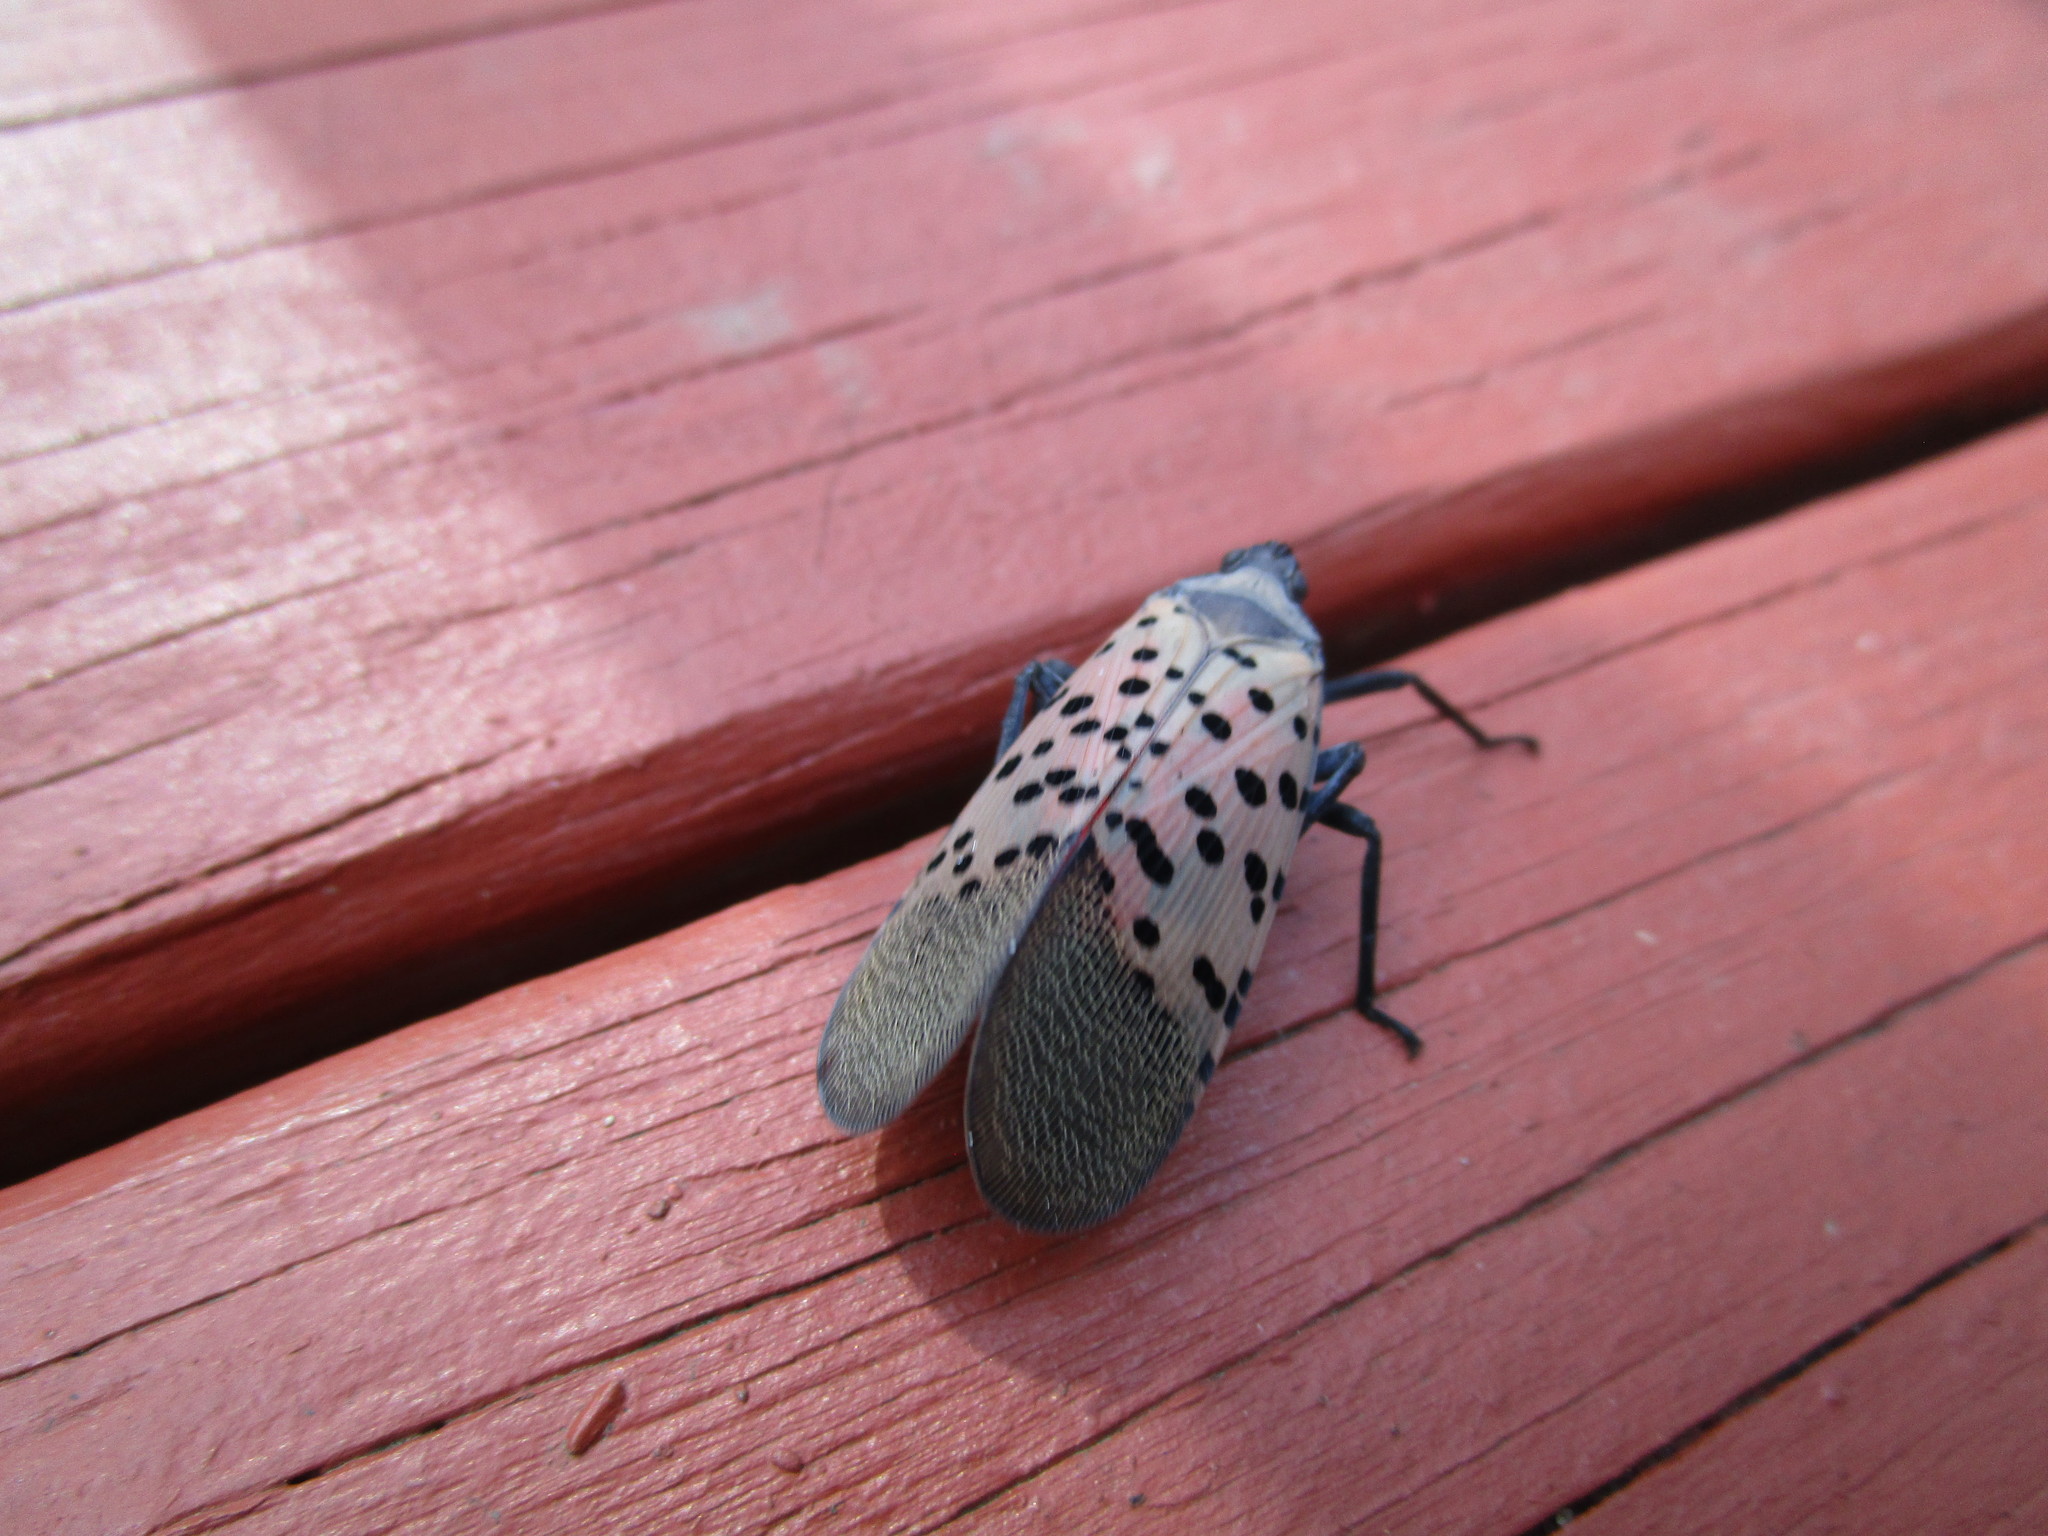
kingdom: Animalia
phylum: Arthropoda
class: Insecta
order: Hemiptera
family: Fulgoridae
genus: Lycorma
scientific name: Lycorma delicatula
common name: Spotted lanternfly
